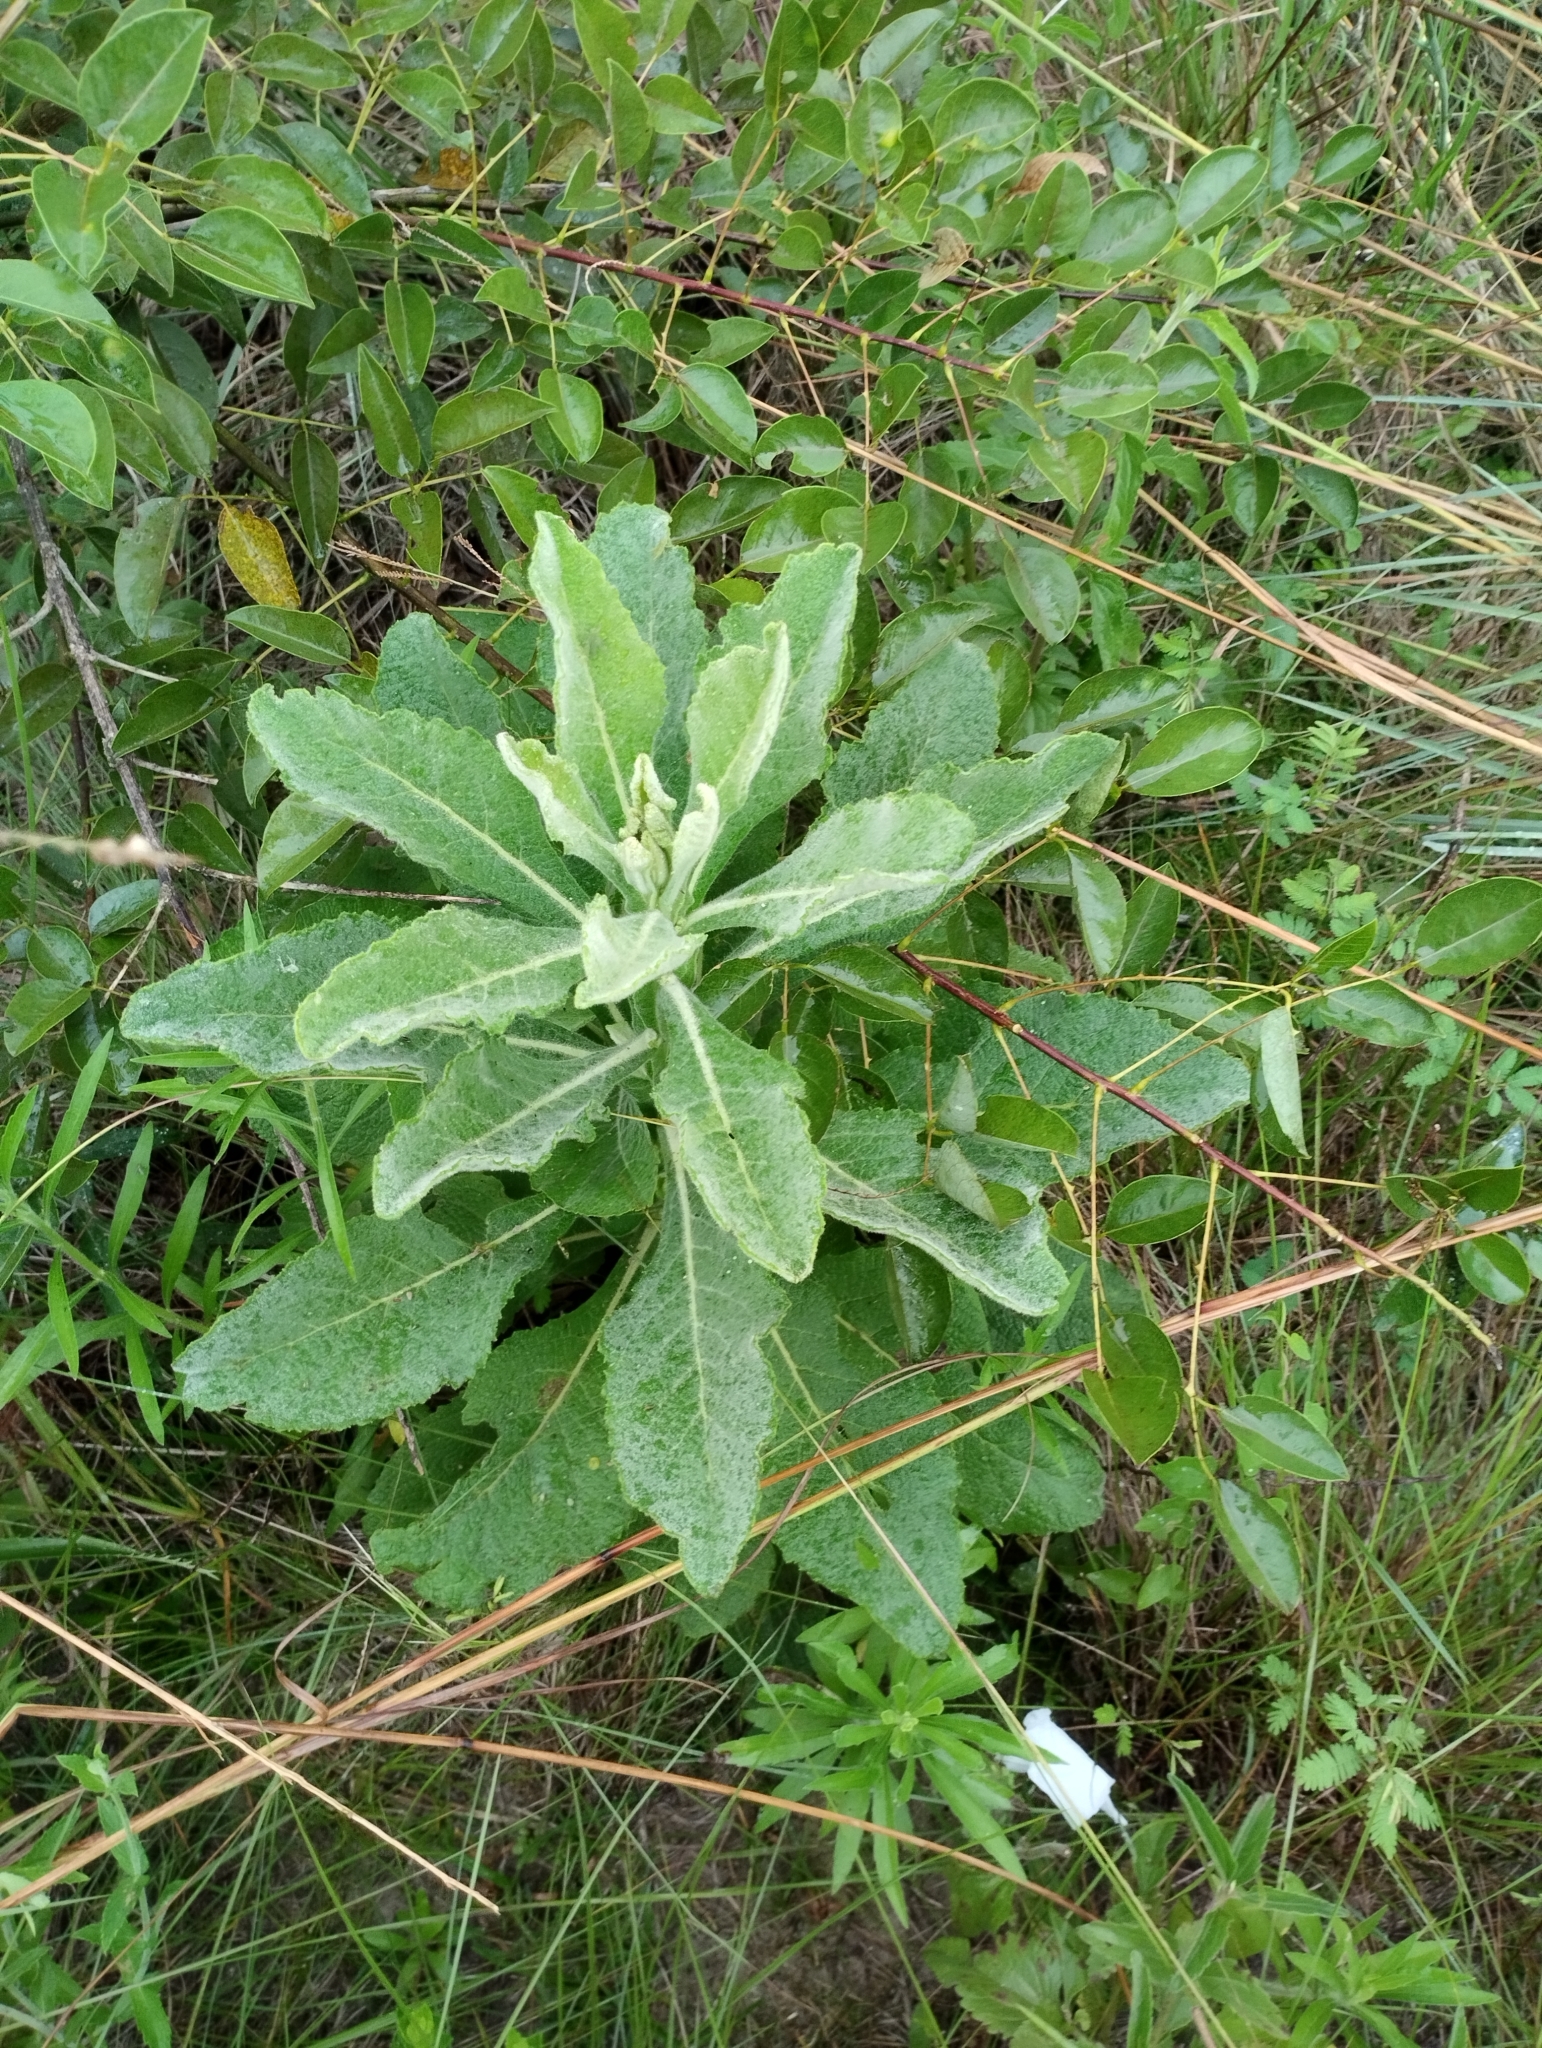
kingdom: Plantae
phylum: Tracheophyta
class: Magnoliopsida
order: Asterales
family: Asteraceae
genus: Trixis
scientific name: Trixis nobilis
